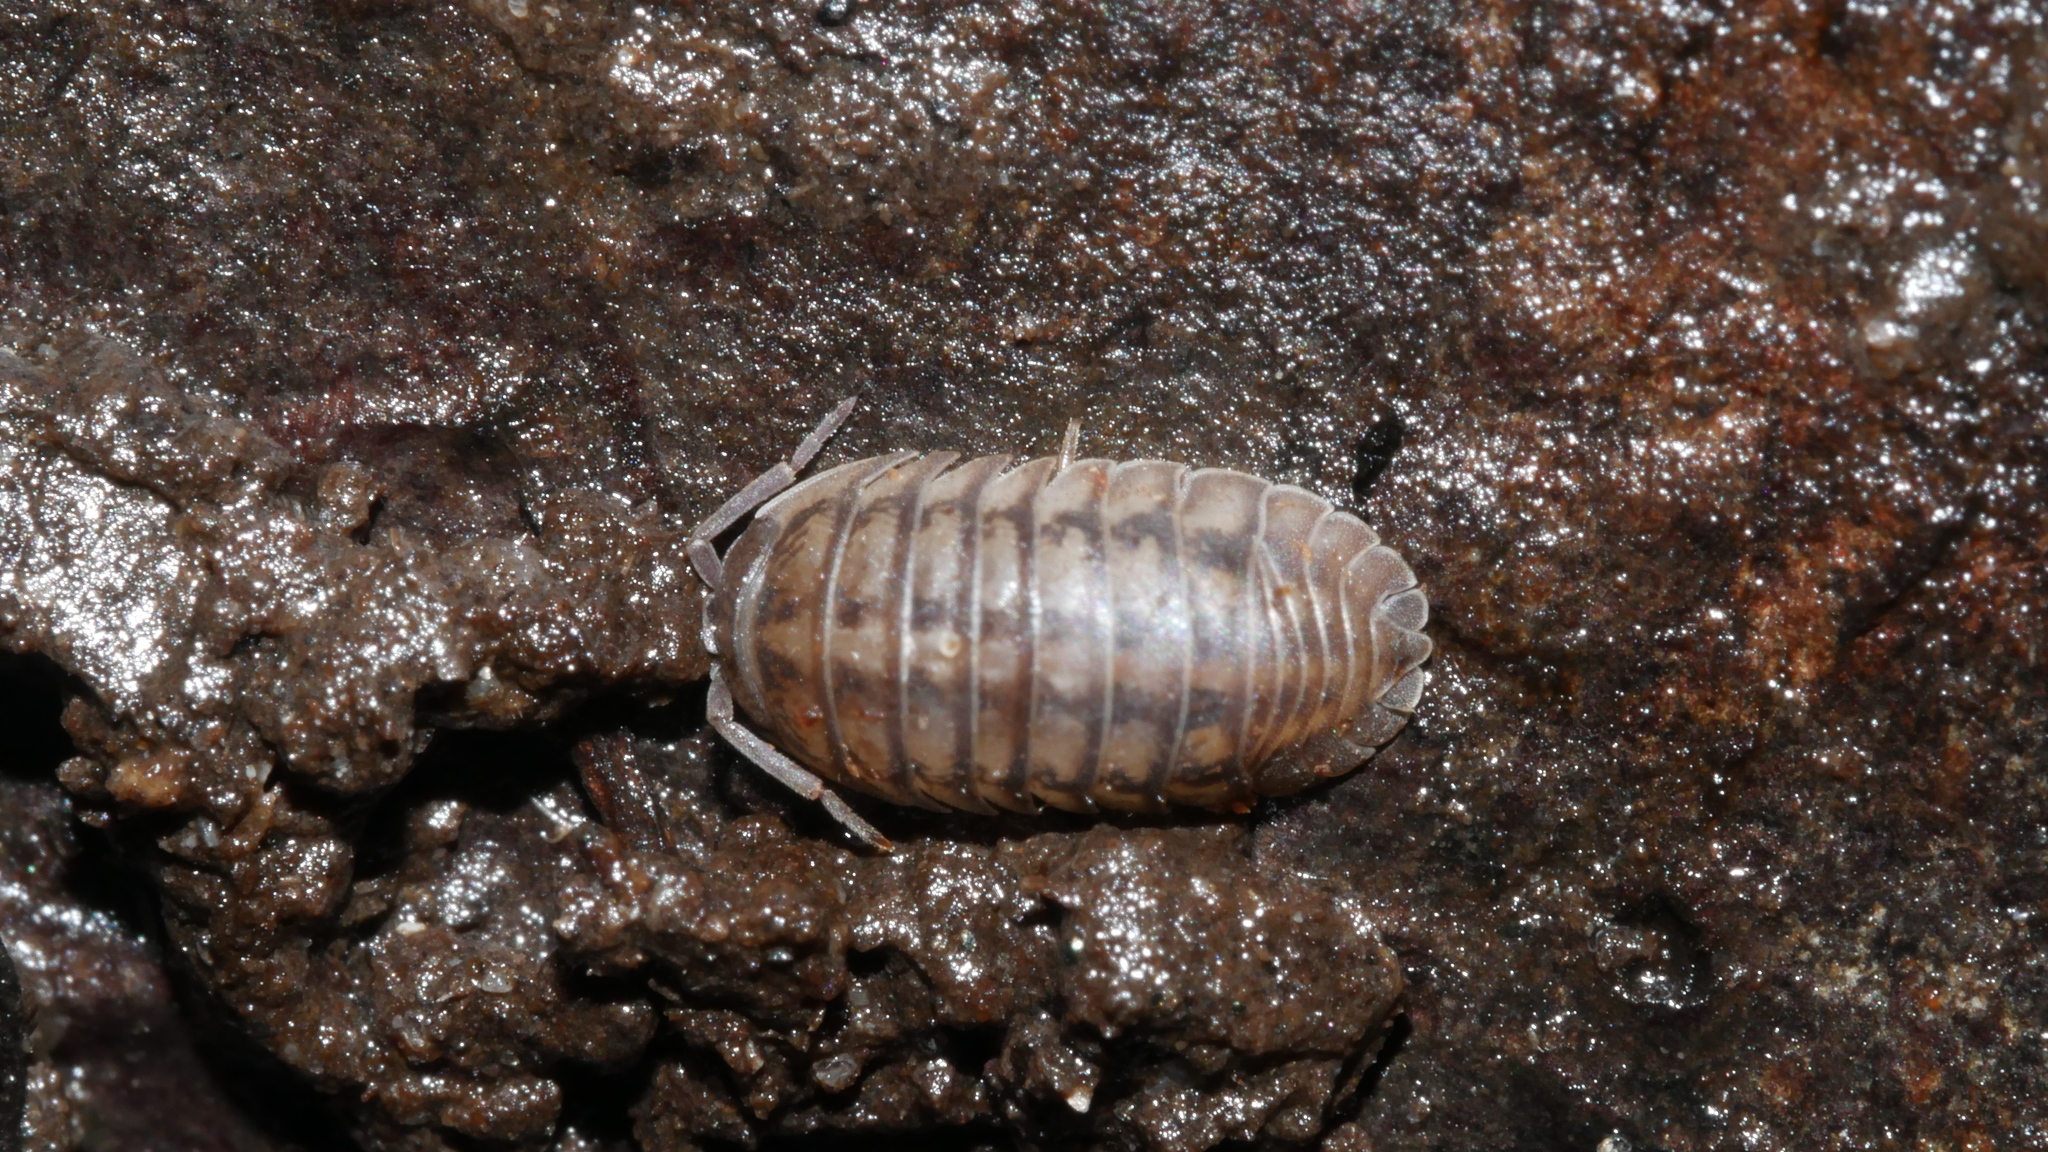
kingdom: Animalia
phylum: Arthropoda
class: Malacostraca
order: Isopoda
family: Armadillidiidae
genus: Armadillidium
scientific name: Armadillidium nasatum
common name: Isopod
